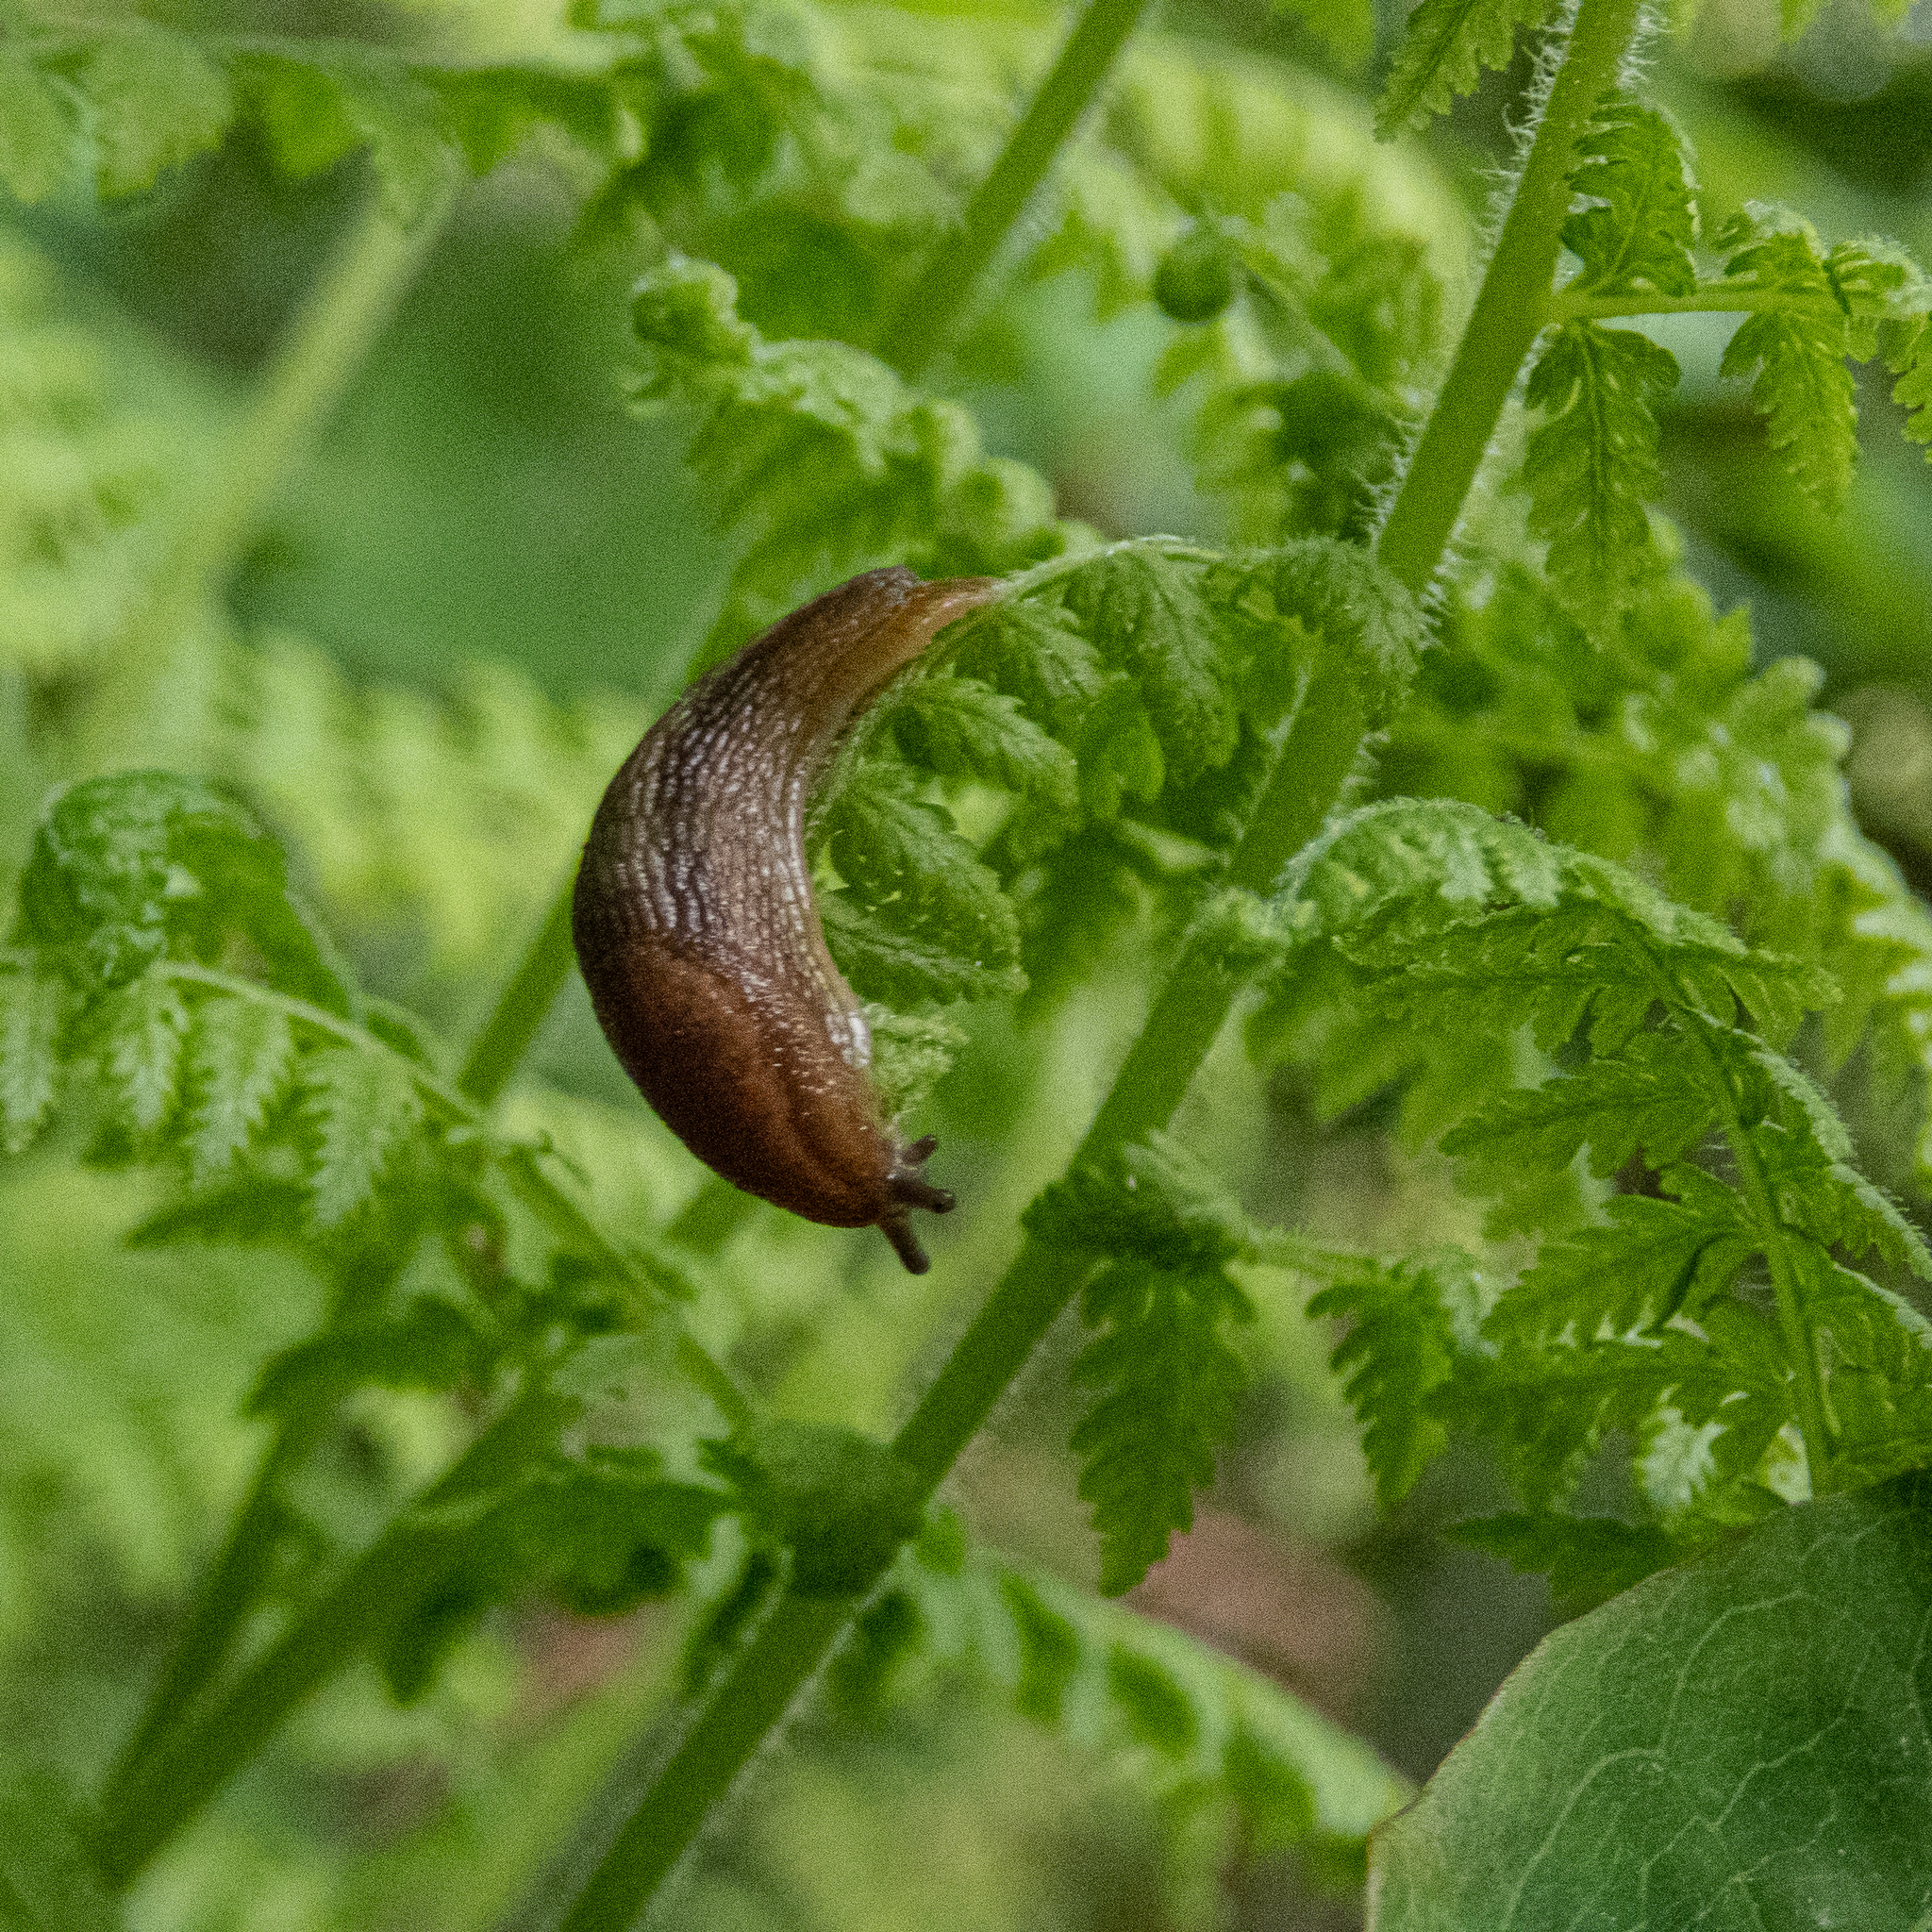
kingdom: Animalia
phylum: Mollusca
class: Gastropoda
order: Stylommatophora
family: Arionidae
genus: Arion
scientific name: Arion subfuscus
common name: Dusky arion
